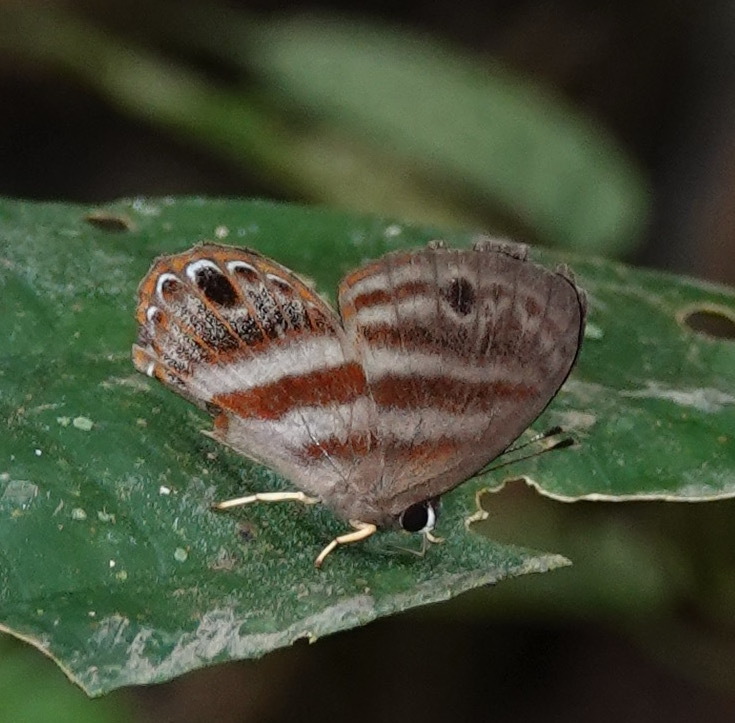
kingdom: Animalia
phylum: Arthropoda
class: Insecta
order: Lepidoptera
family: Riodinidae
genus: Eurylasia
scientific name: Eurylasia
